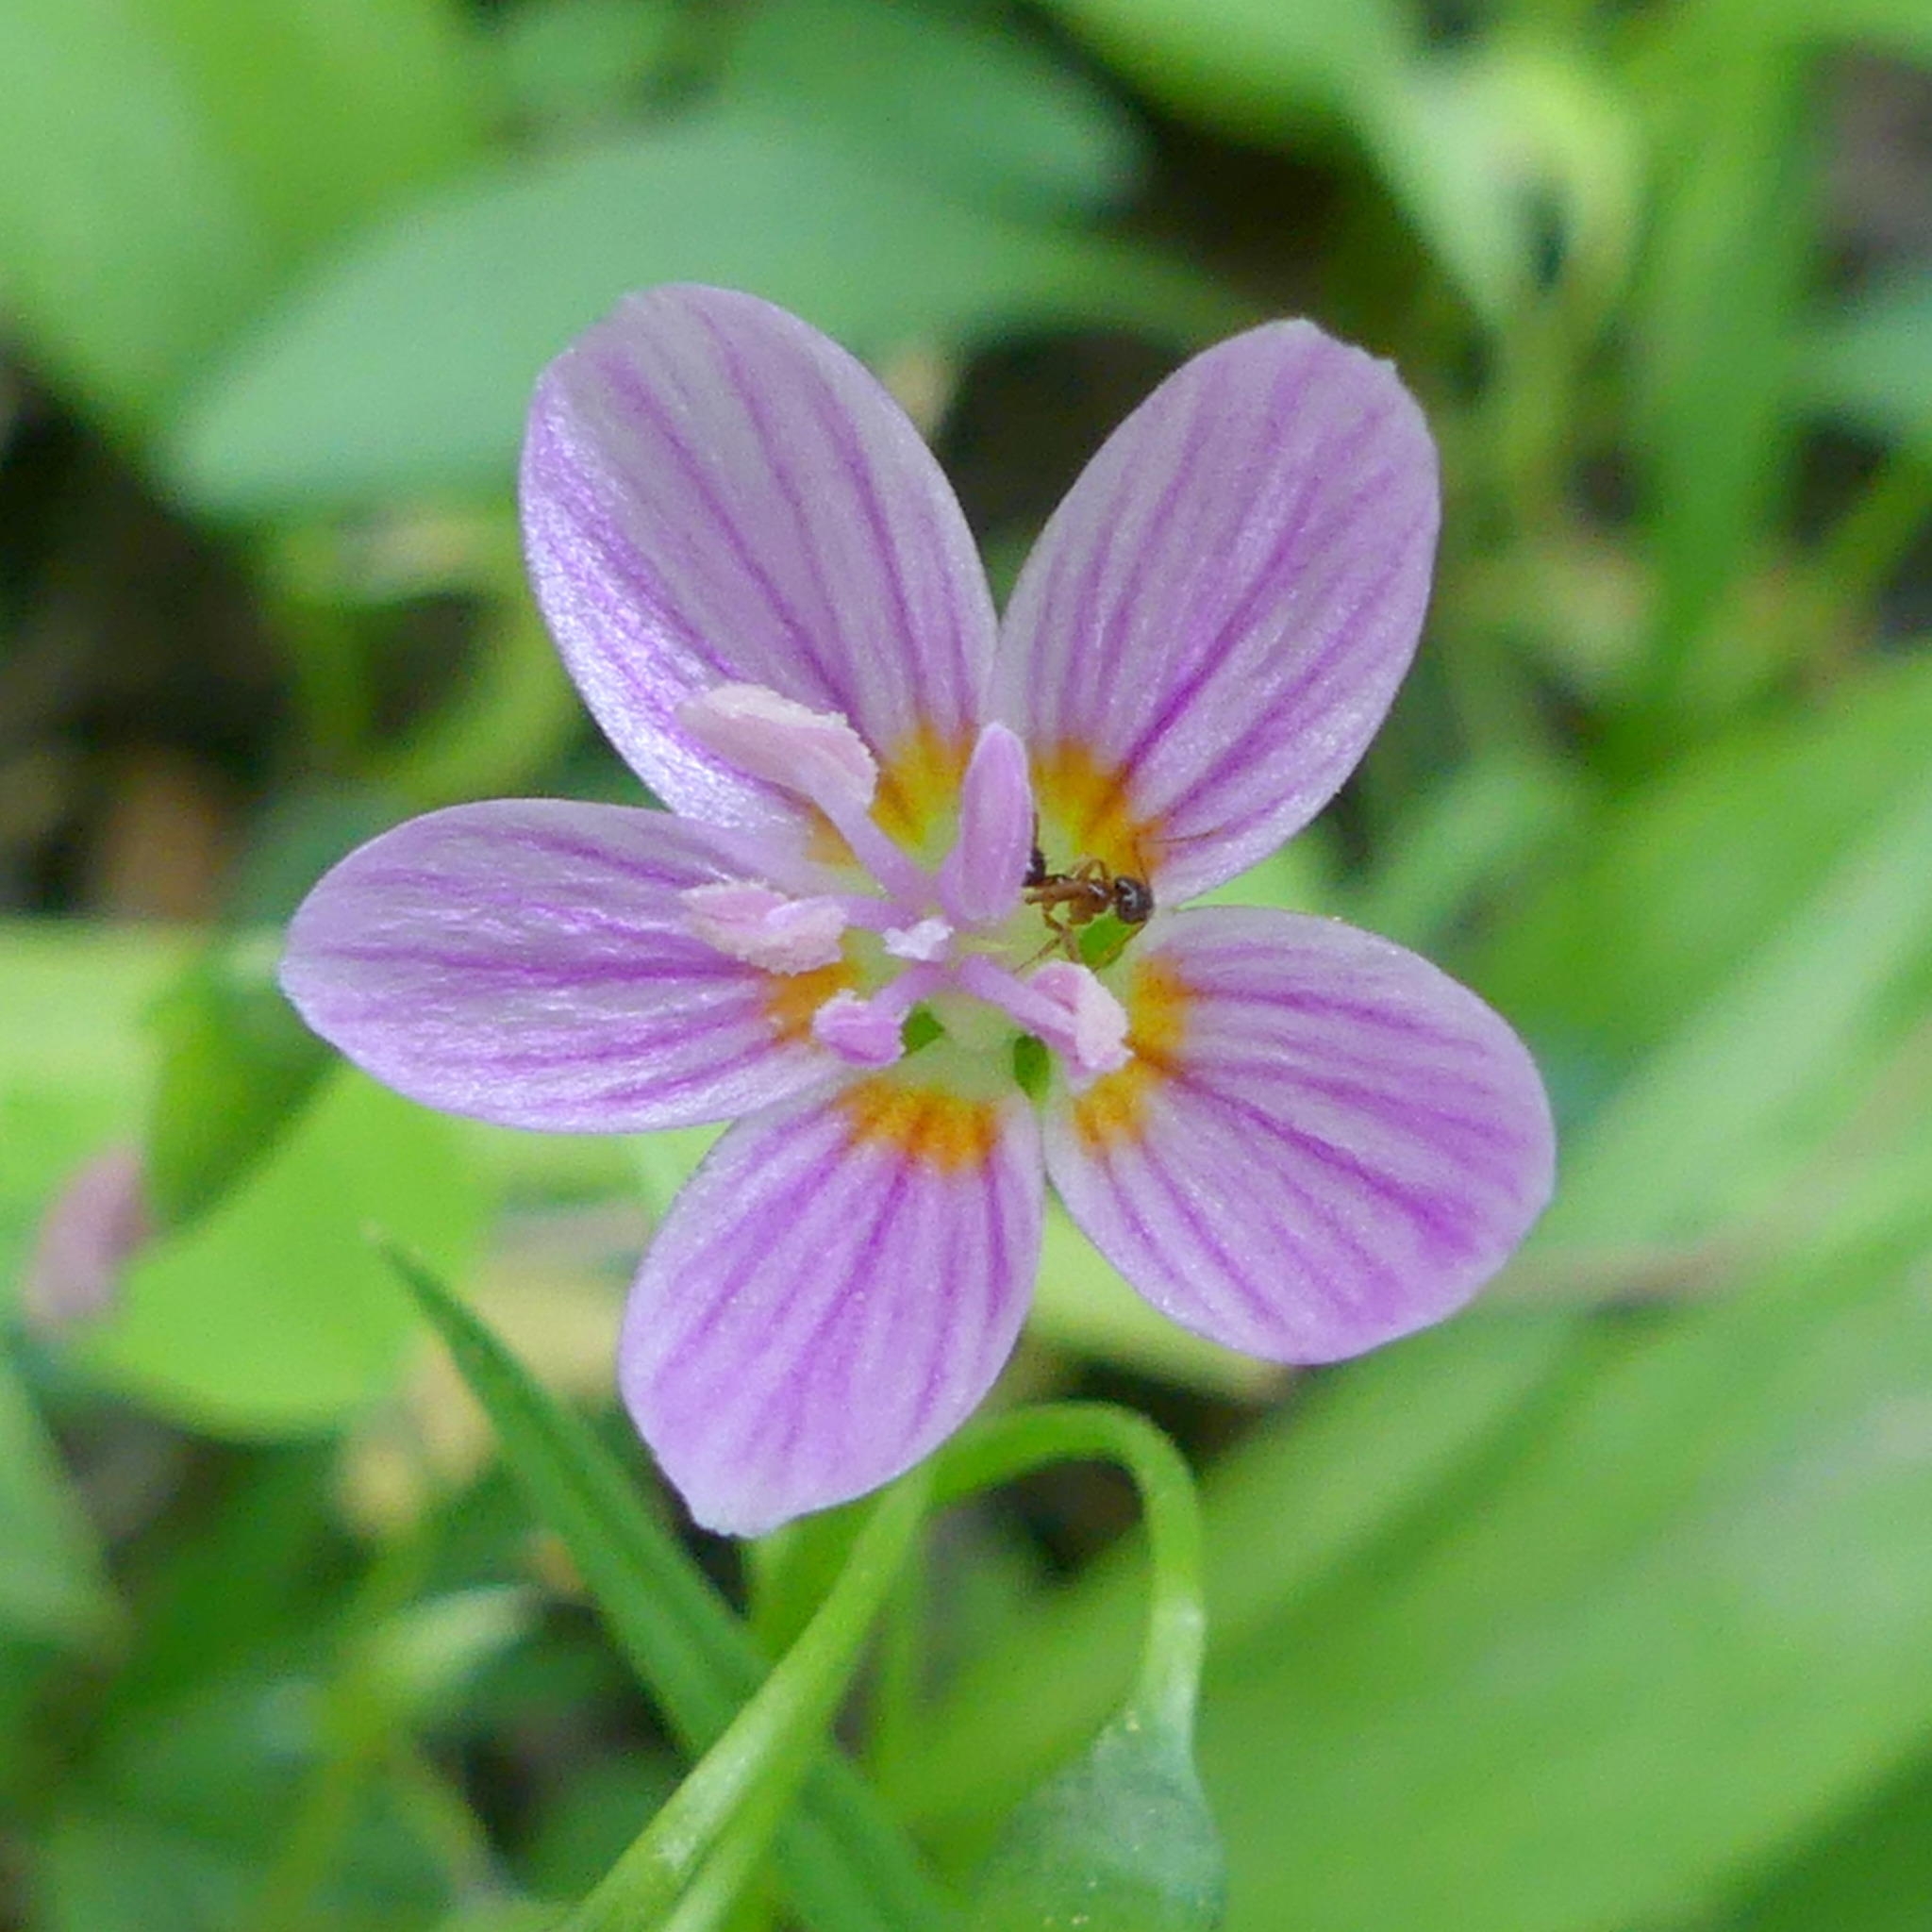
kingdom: Plantae
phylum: Tracheophyta
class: Magnoliopsida
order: Caryophyllales
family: Montiaceae
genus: Claytonia
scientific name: Claytonia virginica
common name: Virginia springbeauty
